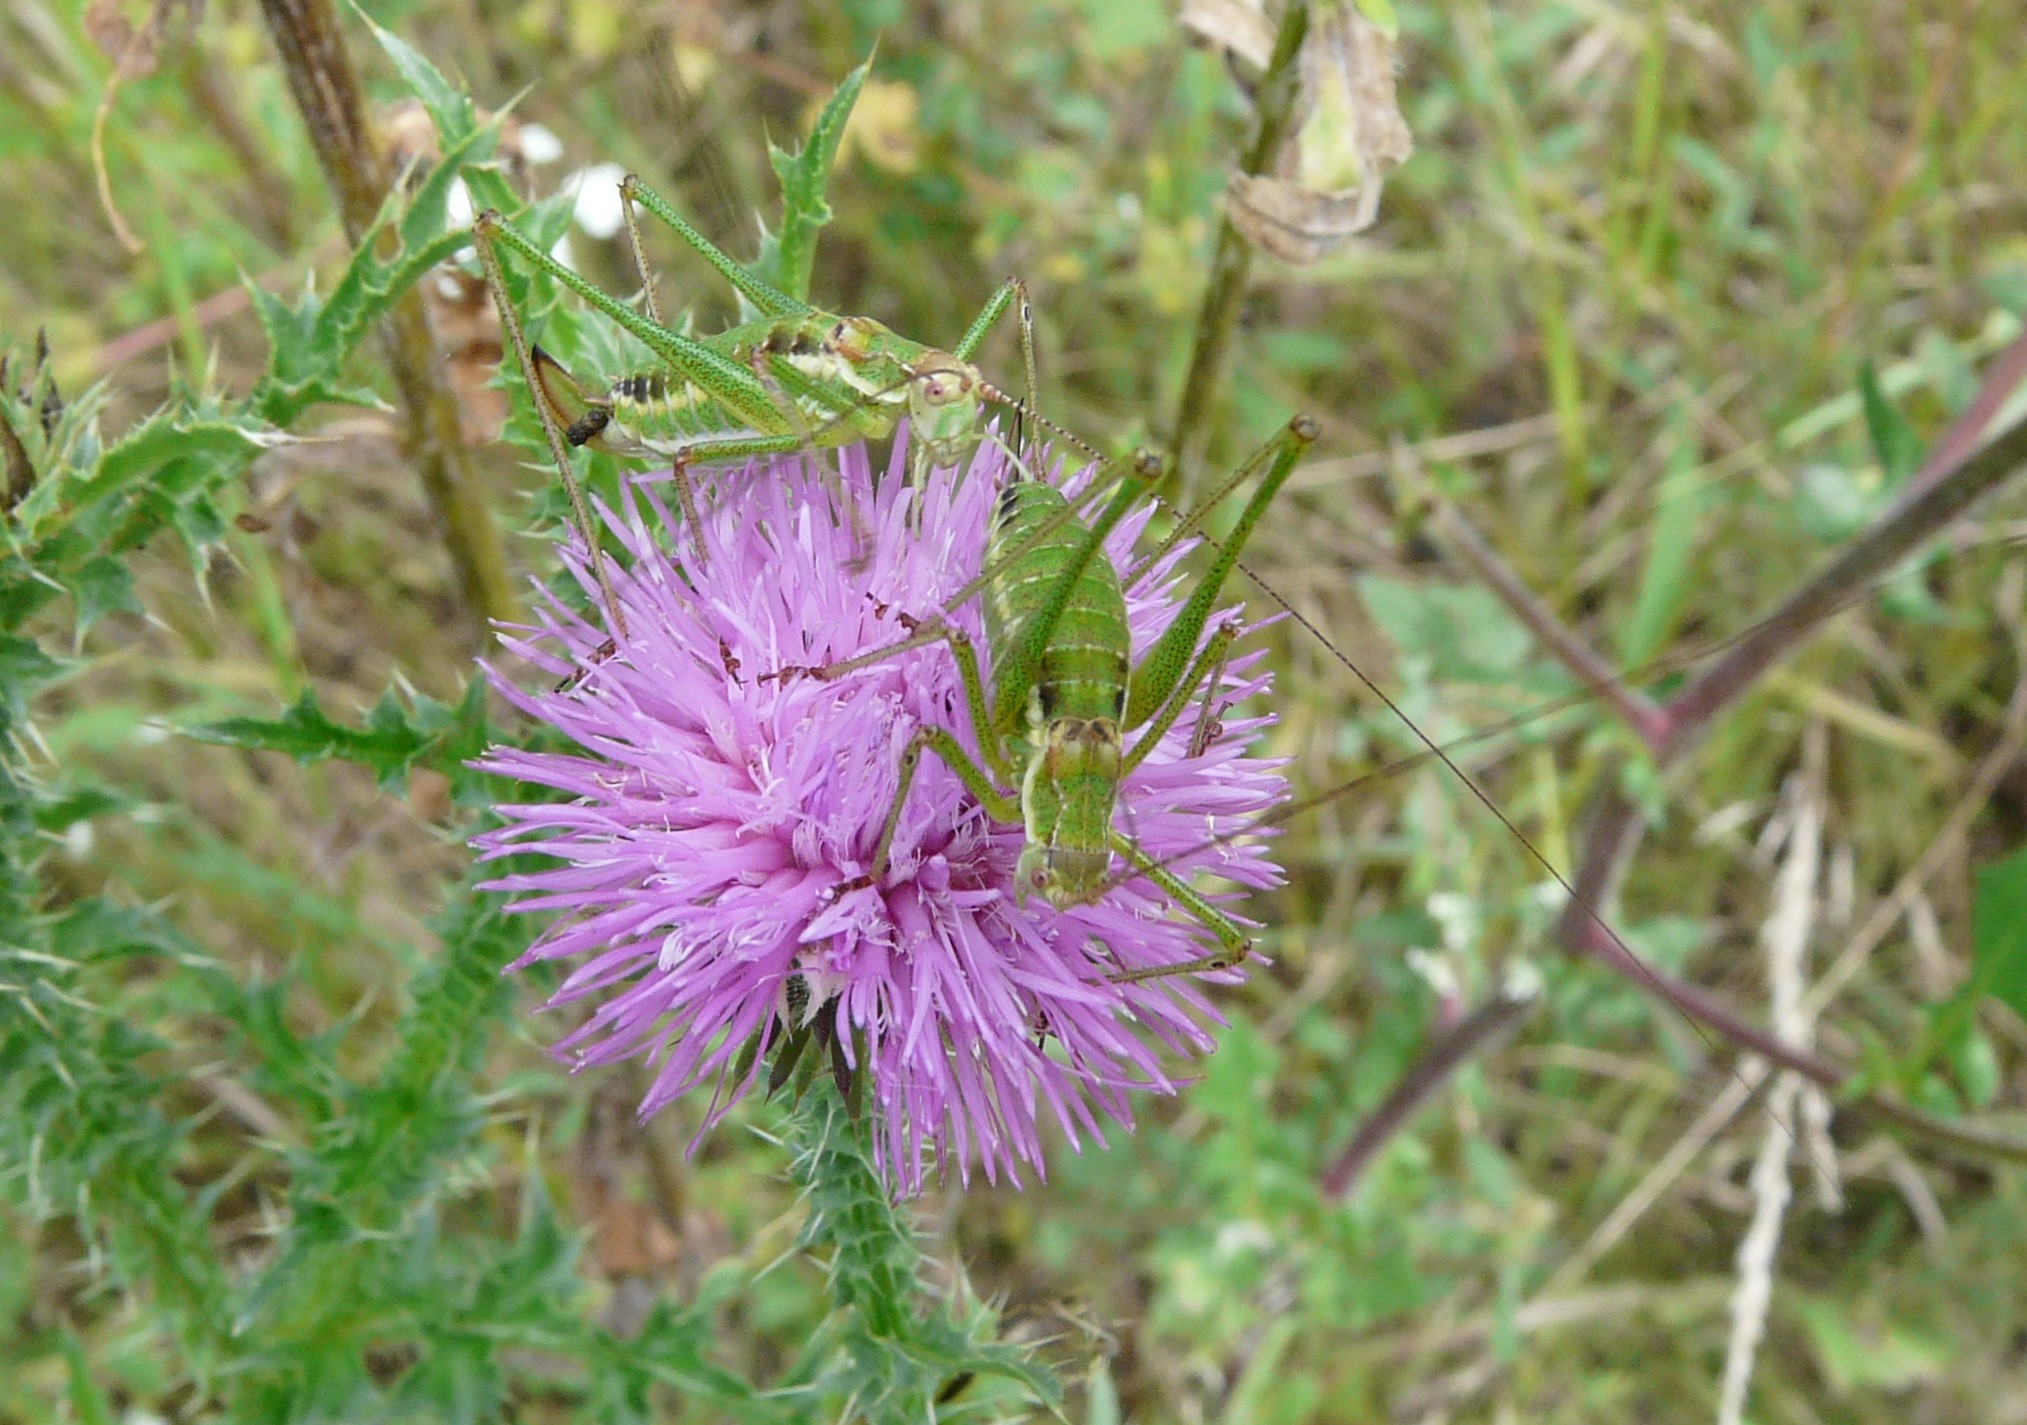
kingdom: Animalia
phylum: Arthropoda
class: Insecta
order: Orthoptera
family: Tettigoniidae
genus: Leptophyes
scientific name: Leptophyes albovittata
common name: Striped bush-cricket
